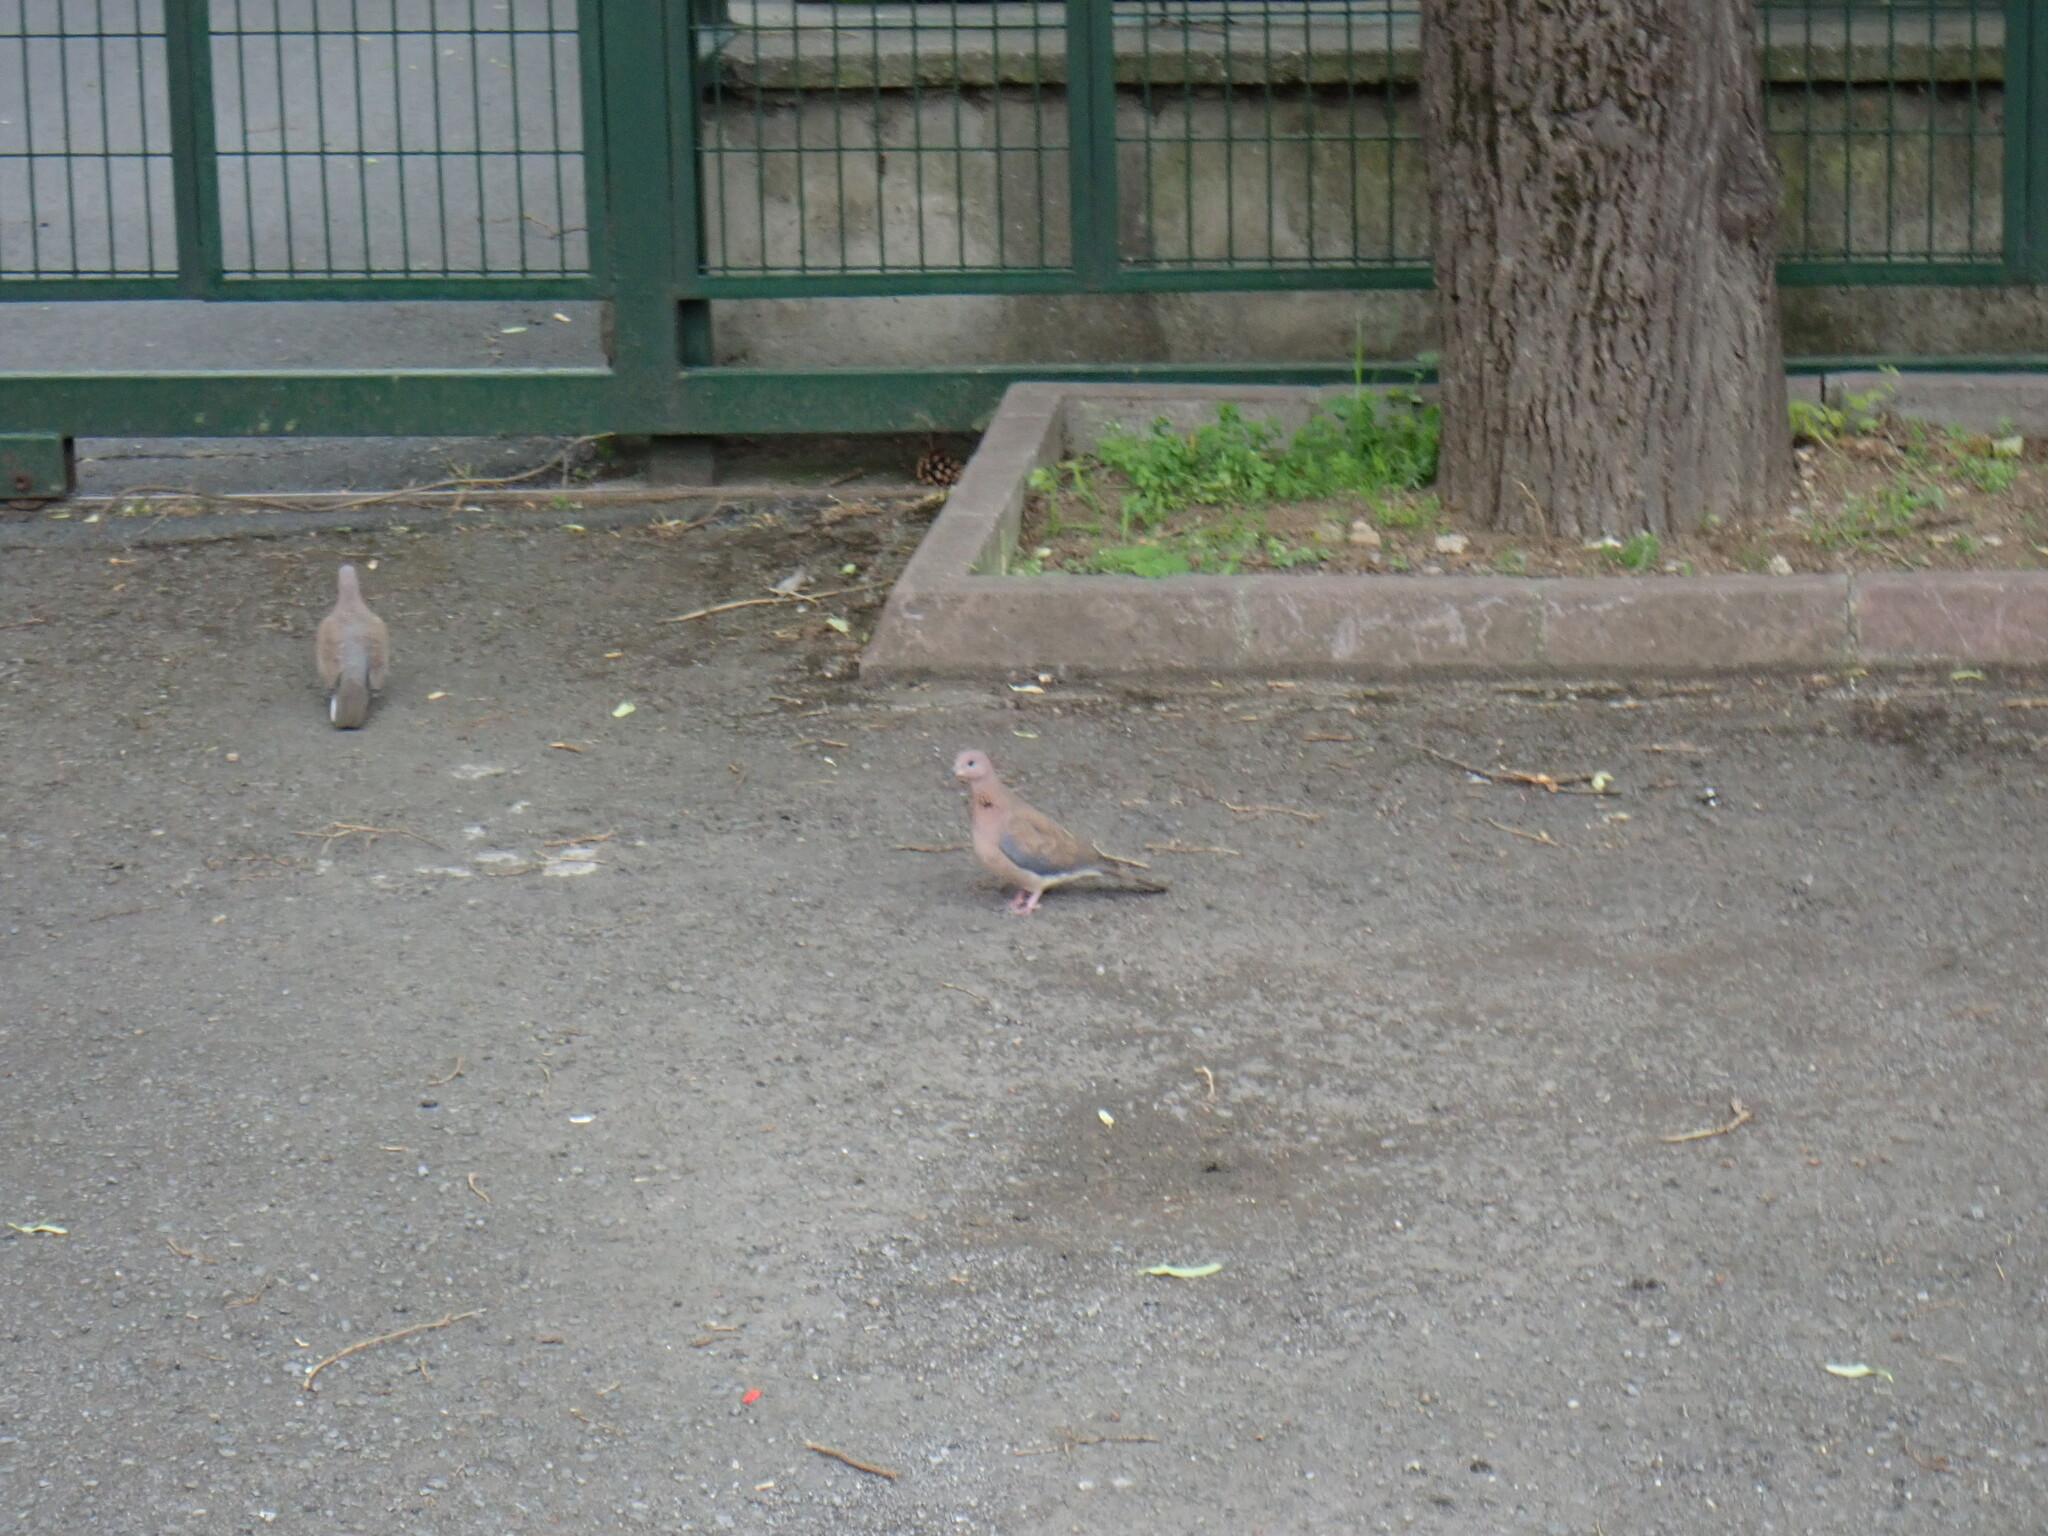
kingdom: Animalia
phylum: Chordata
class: Aves
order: Columbiformes
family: Columbidae
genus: Spilopelia
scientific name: Spilopelia senegalensis
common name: Laughing dove
